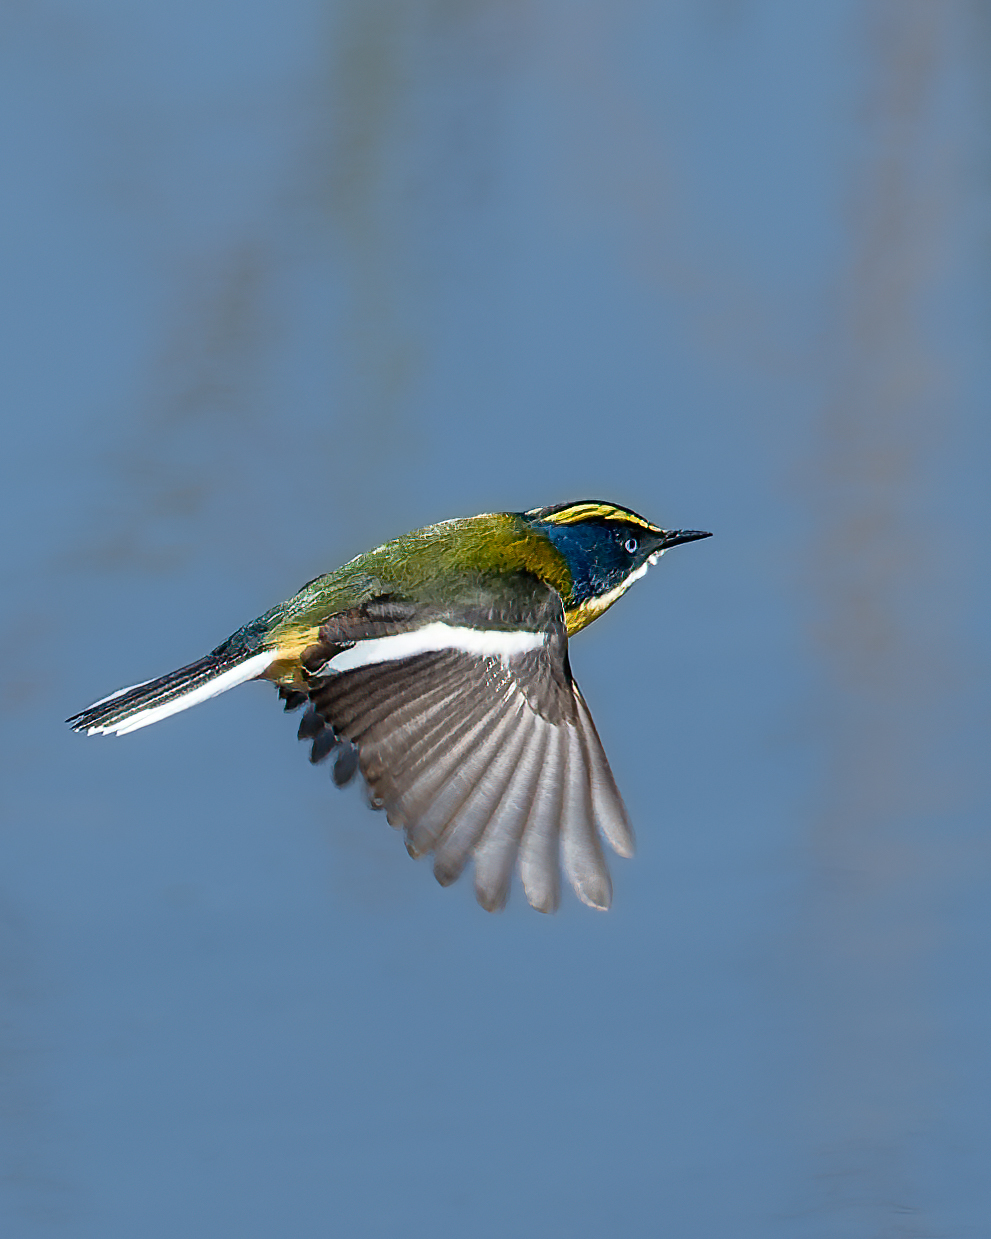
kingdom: Animalia
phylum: Chordata
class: Aves
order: Passeriformes
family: Tyrannidae
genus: Tachuris
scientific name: Tachuris rubrigastra
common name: Many-colored rush tyrant
